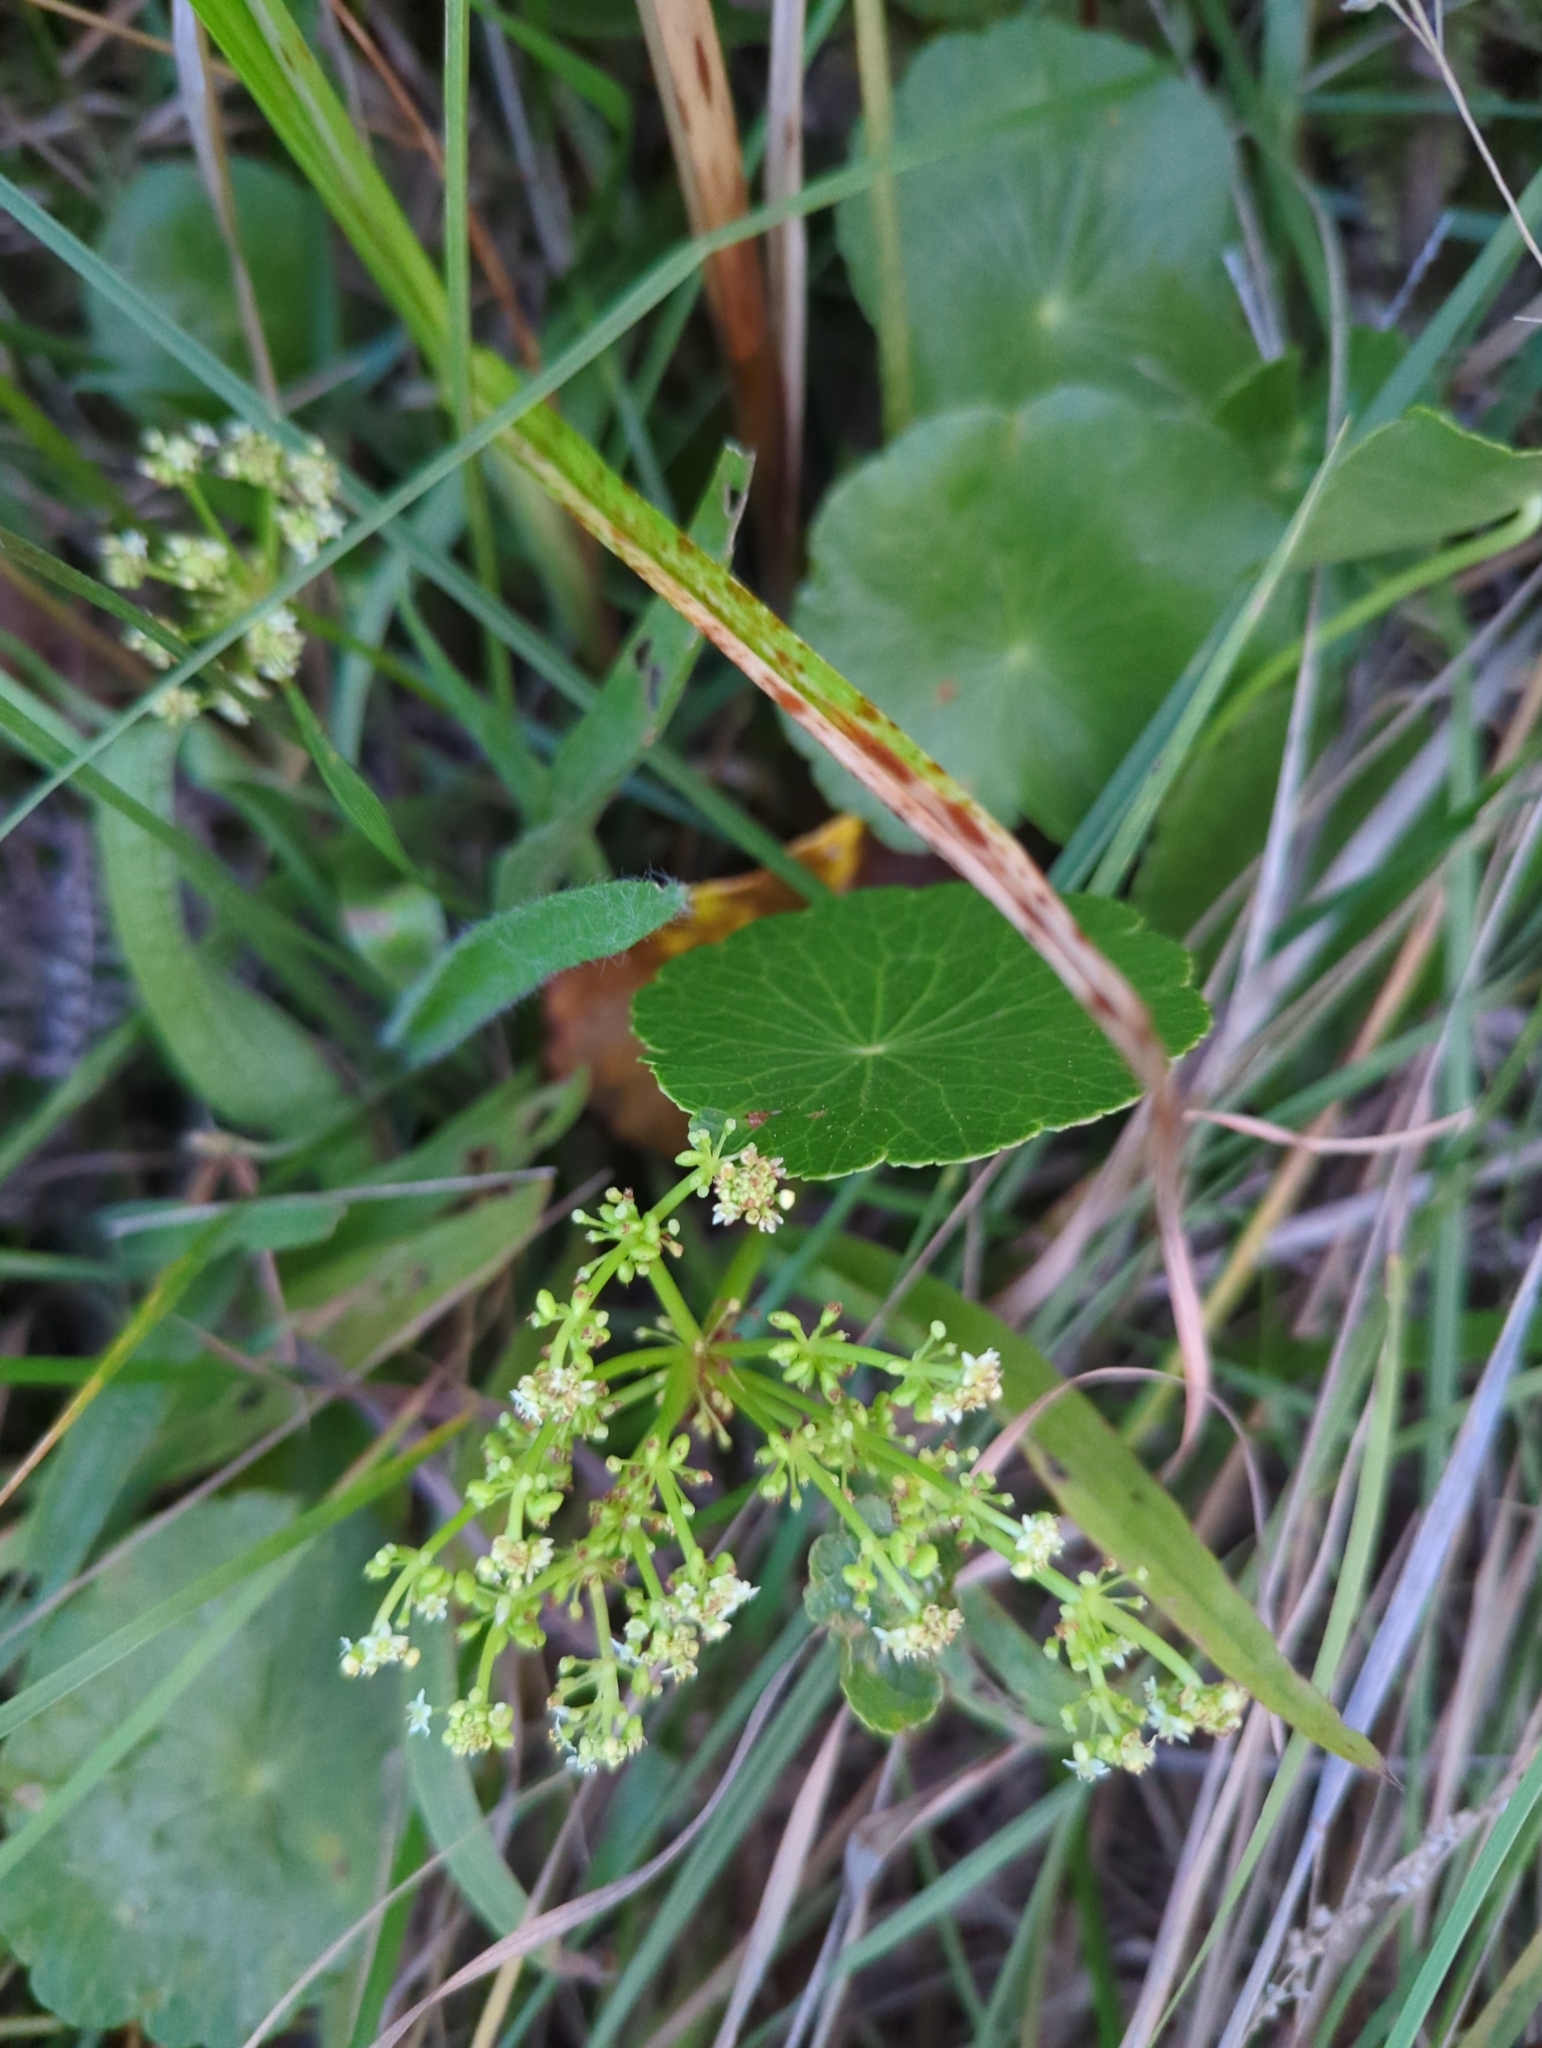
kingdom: Plantae
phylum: Tracheophyta
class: Magnoliopsida
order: Apiales
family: Araliaceae
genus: Hydrocotyle
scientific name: Hydrocotyle bonariensis
